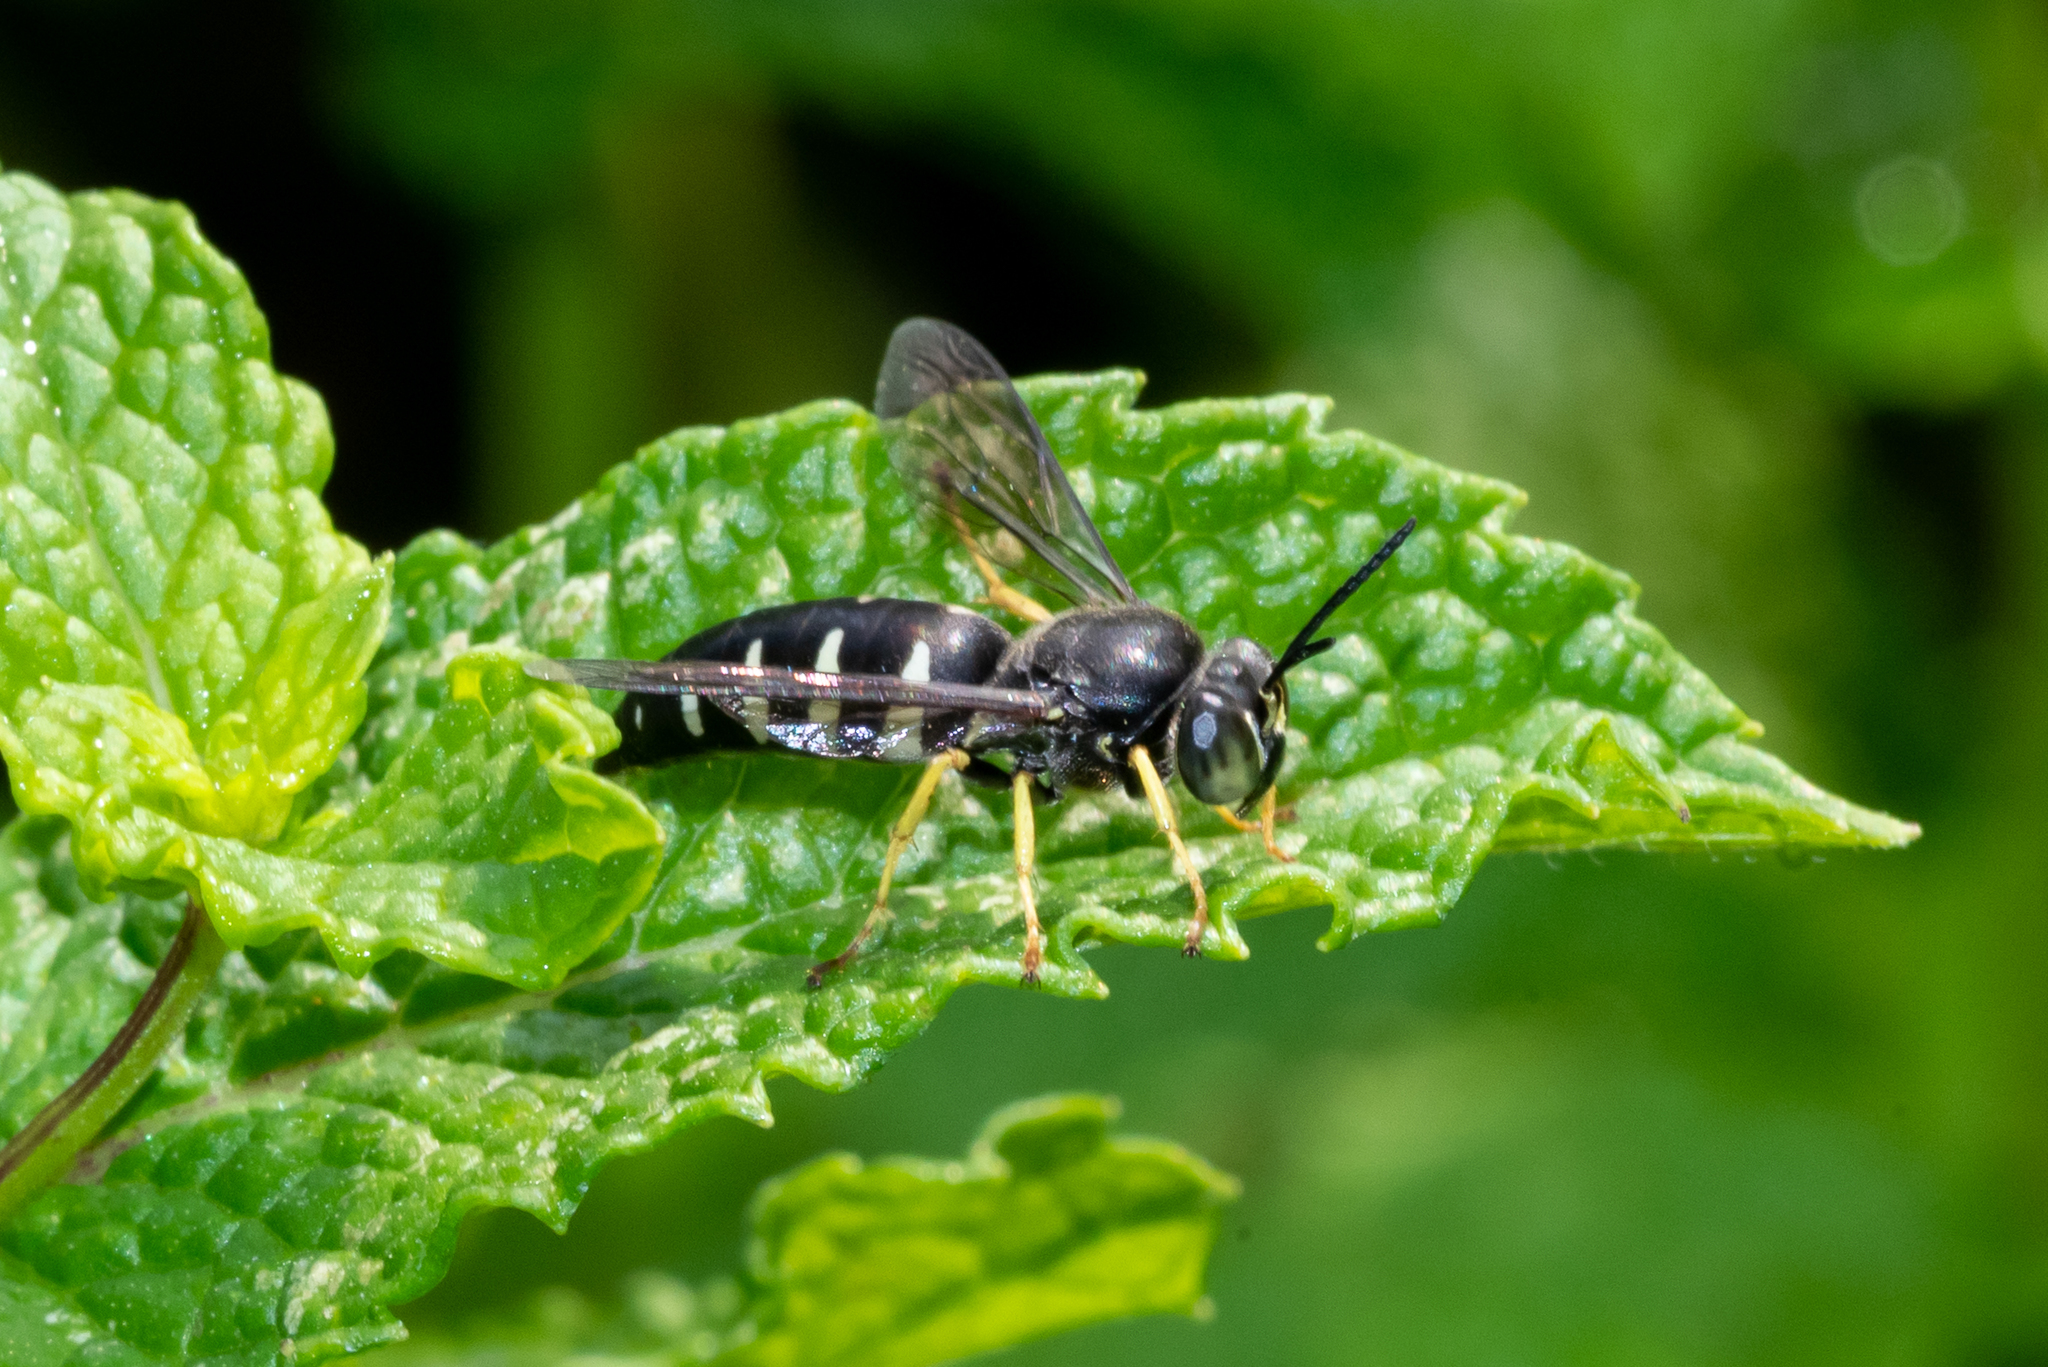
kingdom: Animalia
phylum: Arthropoda
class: Insecta
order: Hymenoptera
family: Crabronidae
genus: Bicyrtes
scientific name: Bicyrtes quadrifasciatus
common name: Four-banded stink bug hunter wasp
